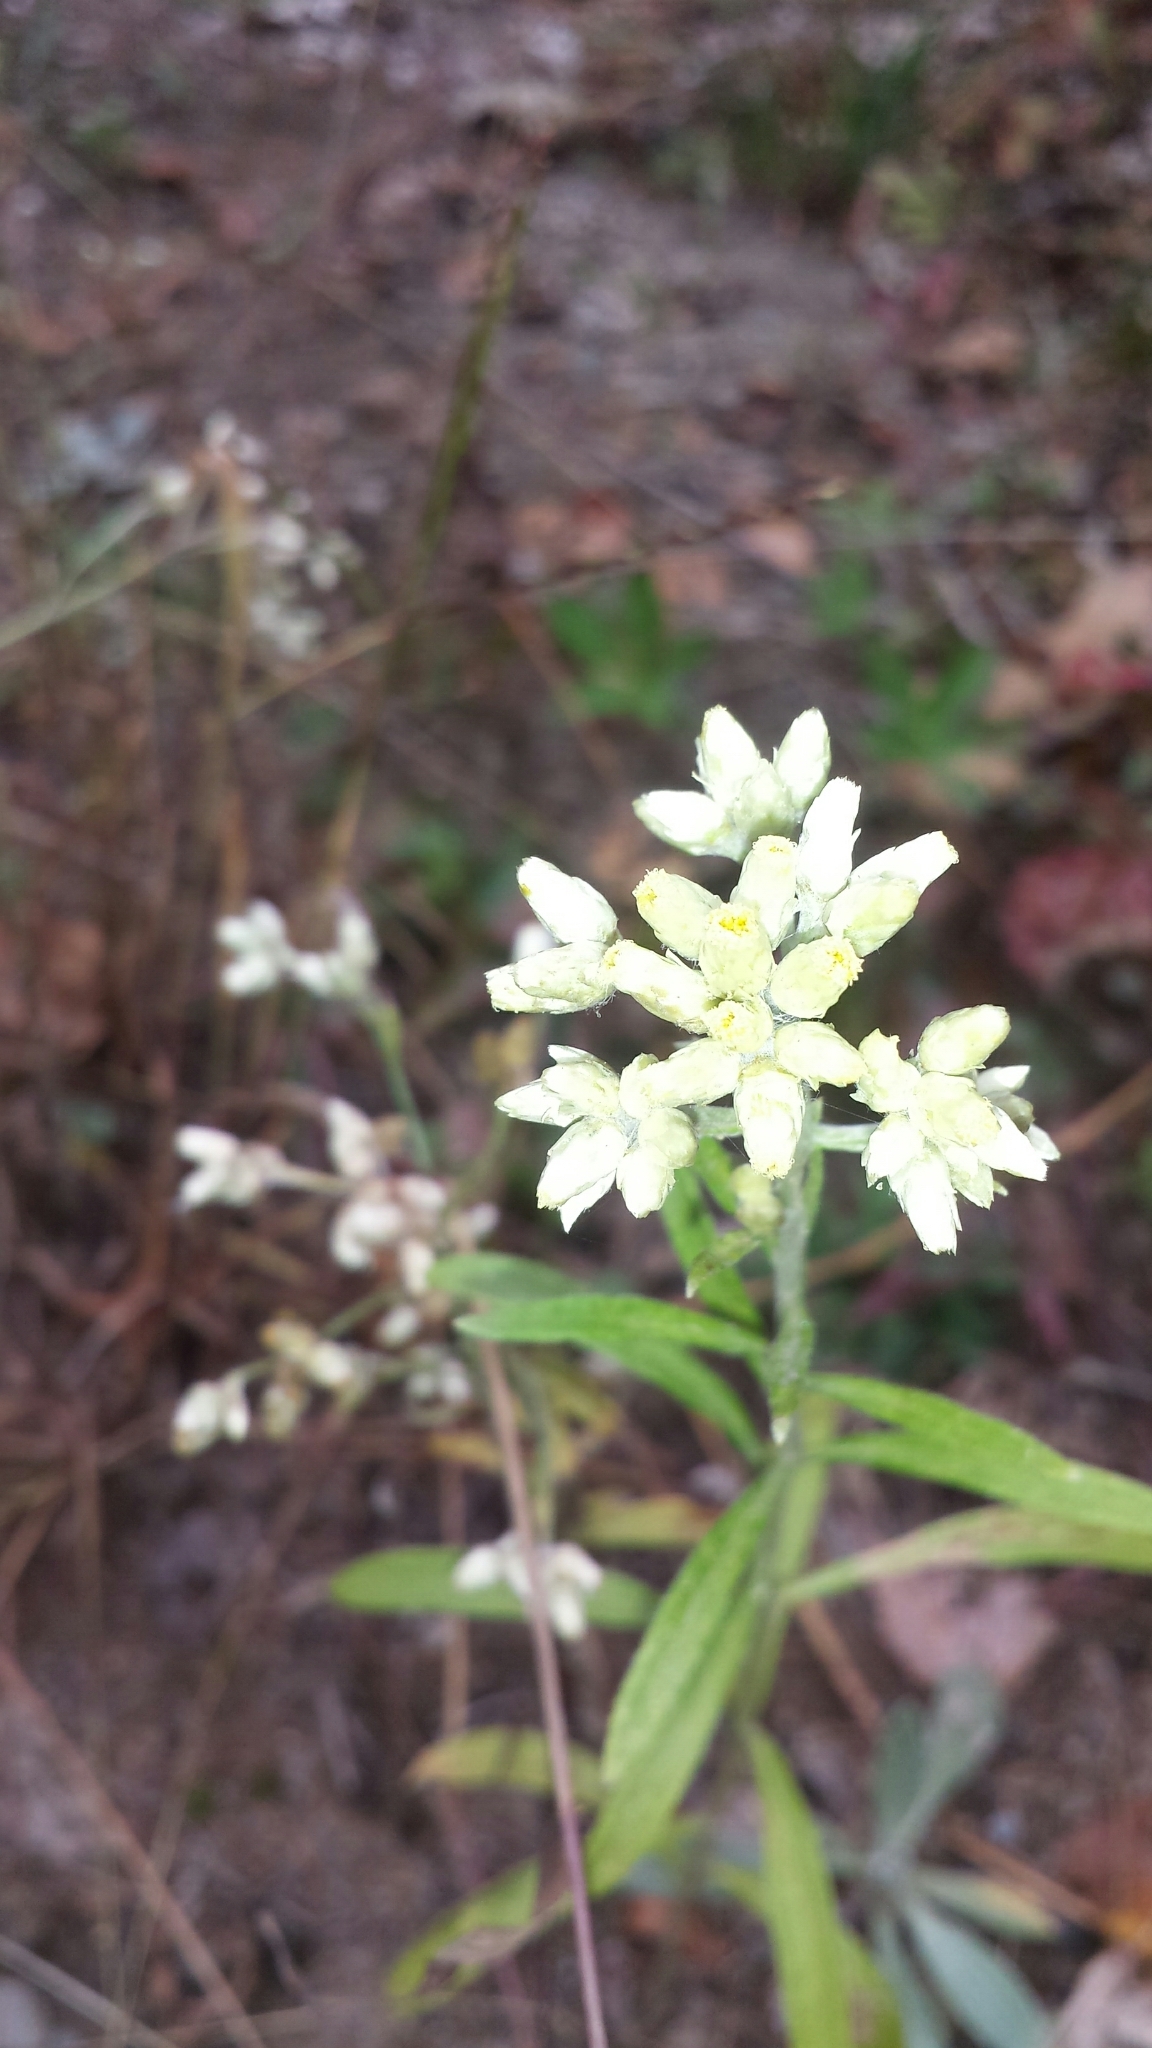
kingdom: Plantae
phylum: Tracheophyta
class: Magnoliopsida
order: Asterales
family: Asteraceae
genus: Pseudognaphalium
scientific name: Pseudognaphalium obtusifolium
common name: Eastern rabbit-tobacco
